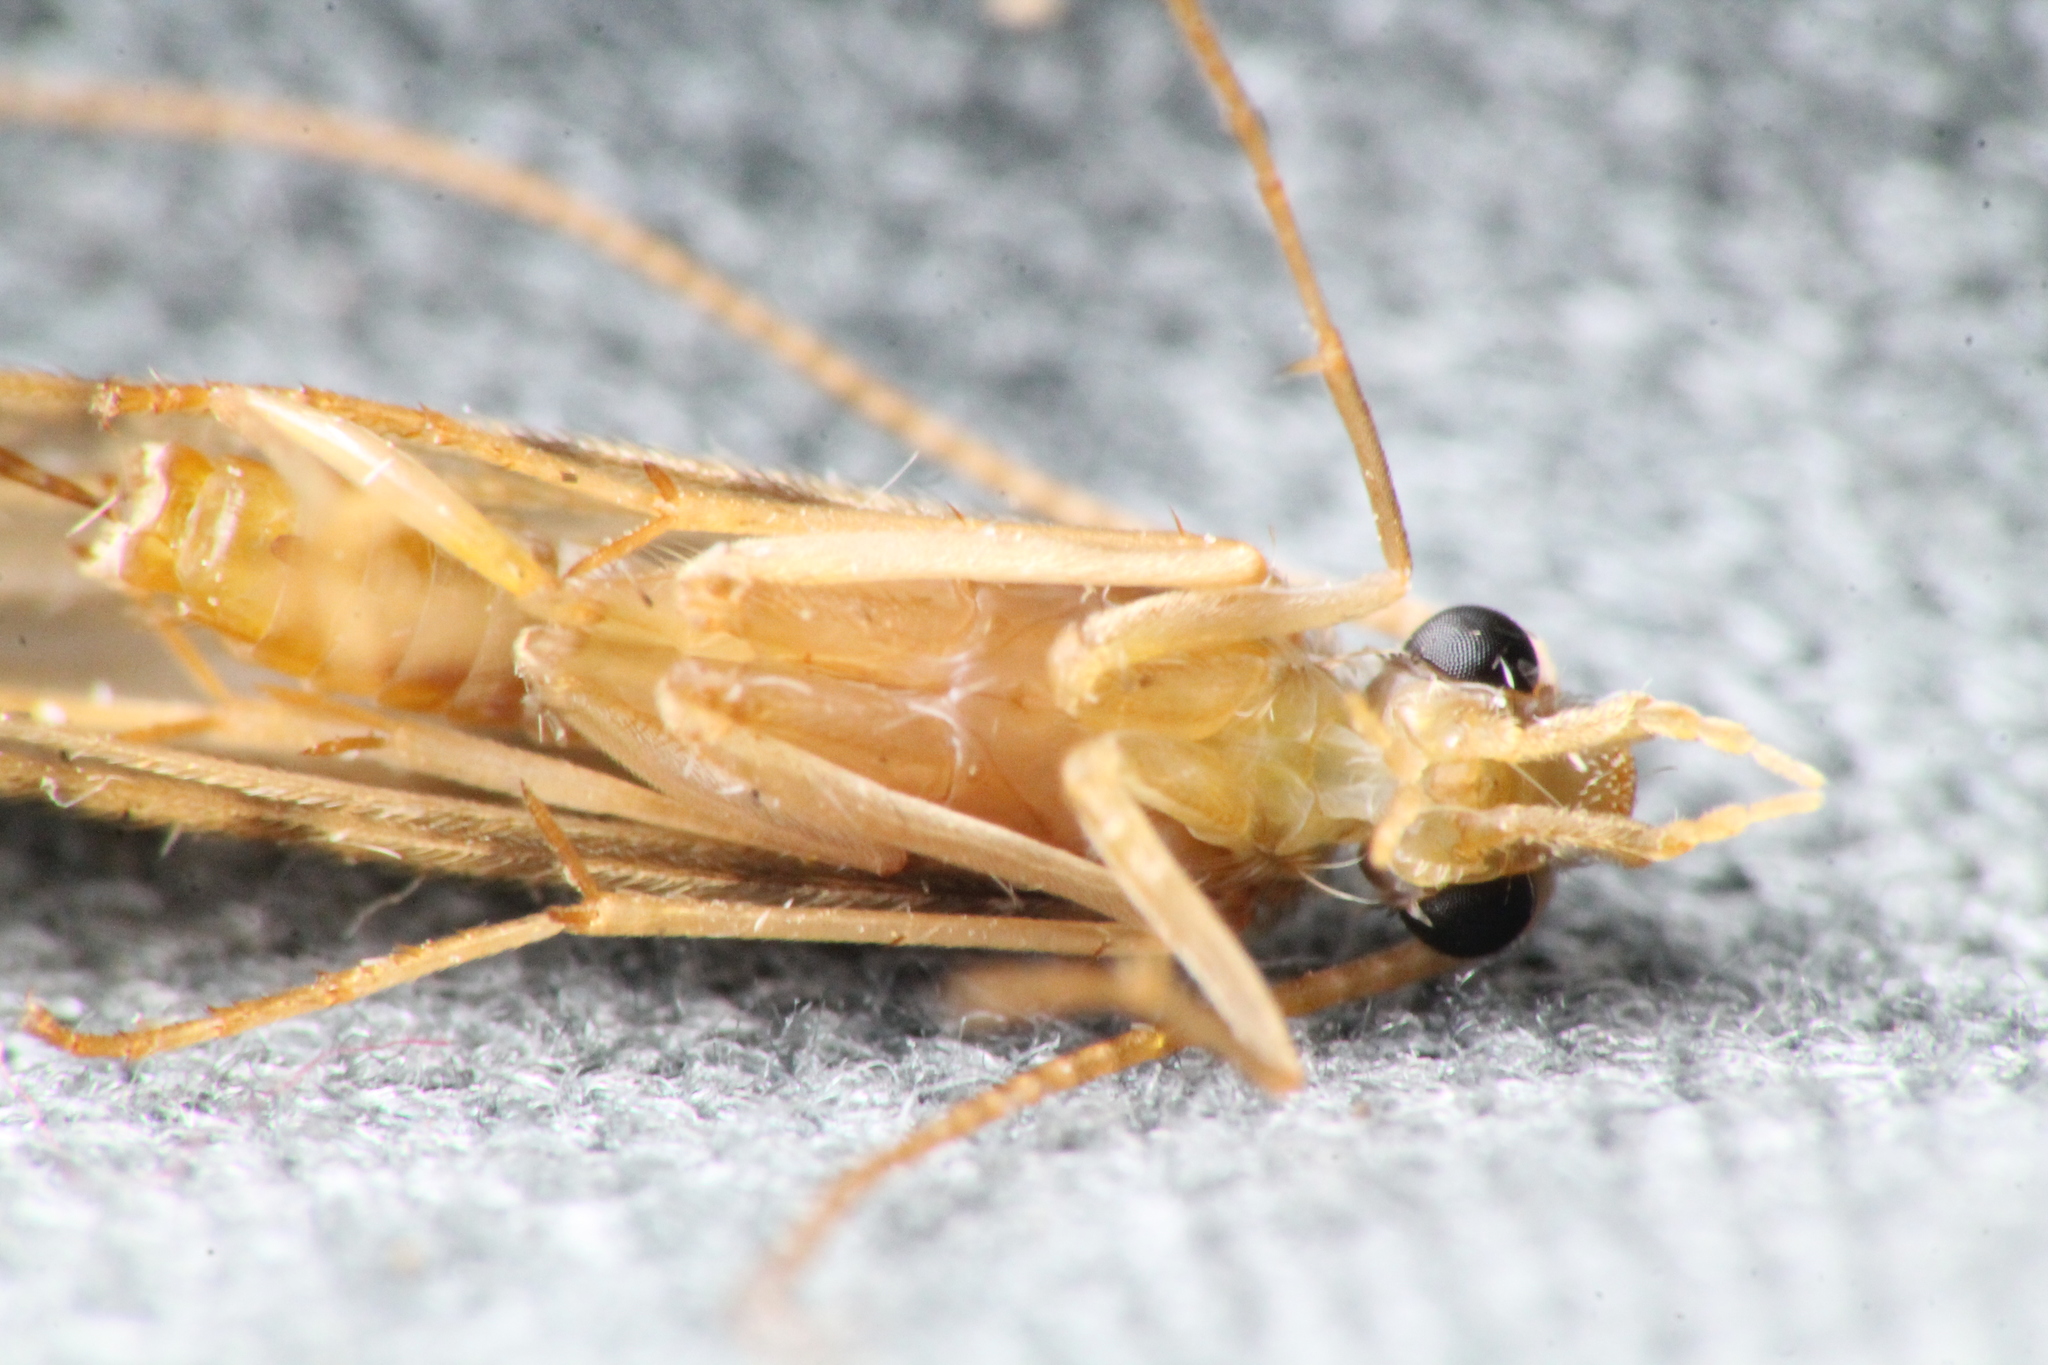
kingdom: Animalia
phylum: Arthropoda
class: Insecta
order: Trichoptera
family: Chathamiidae
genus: Philanisus
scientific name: Philanisus plebeius
